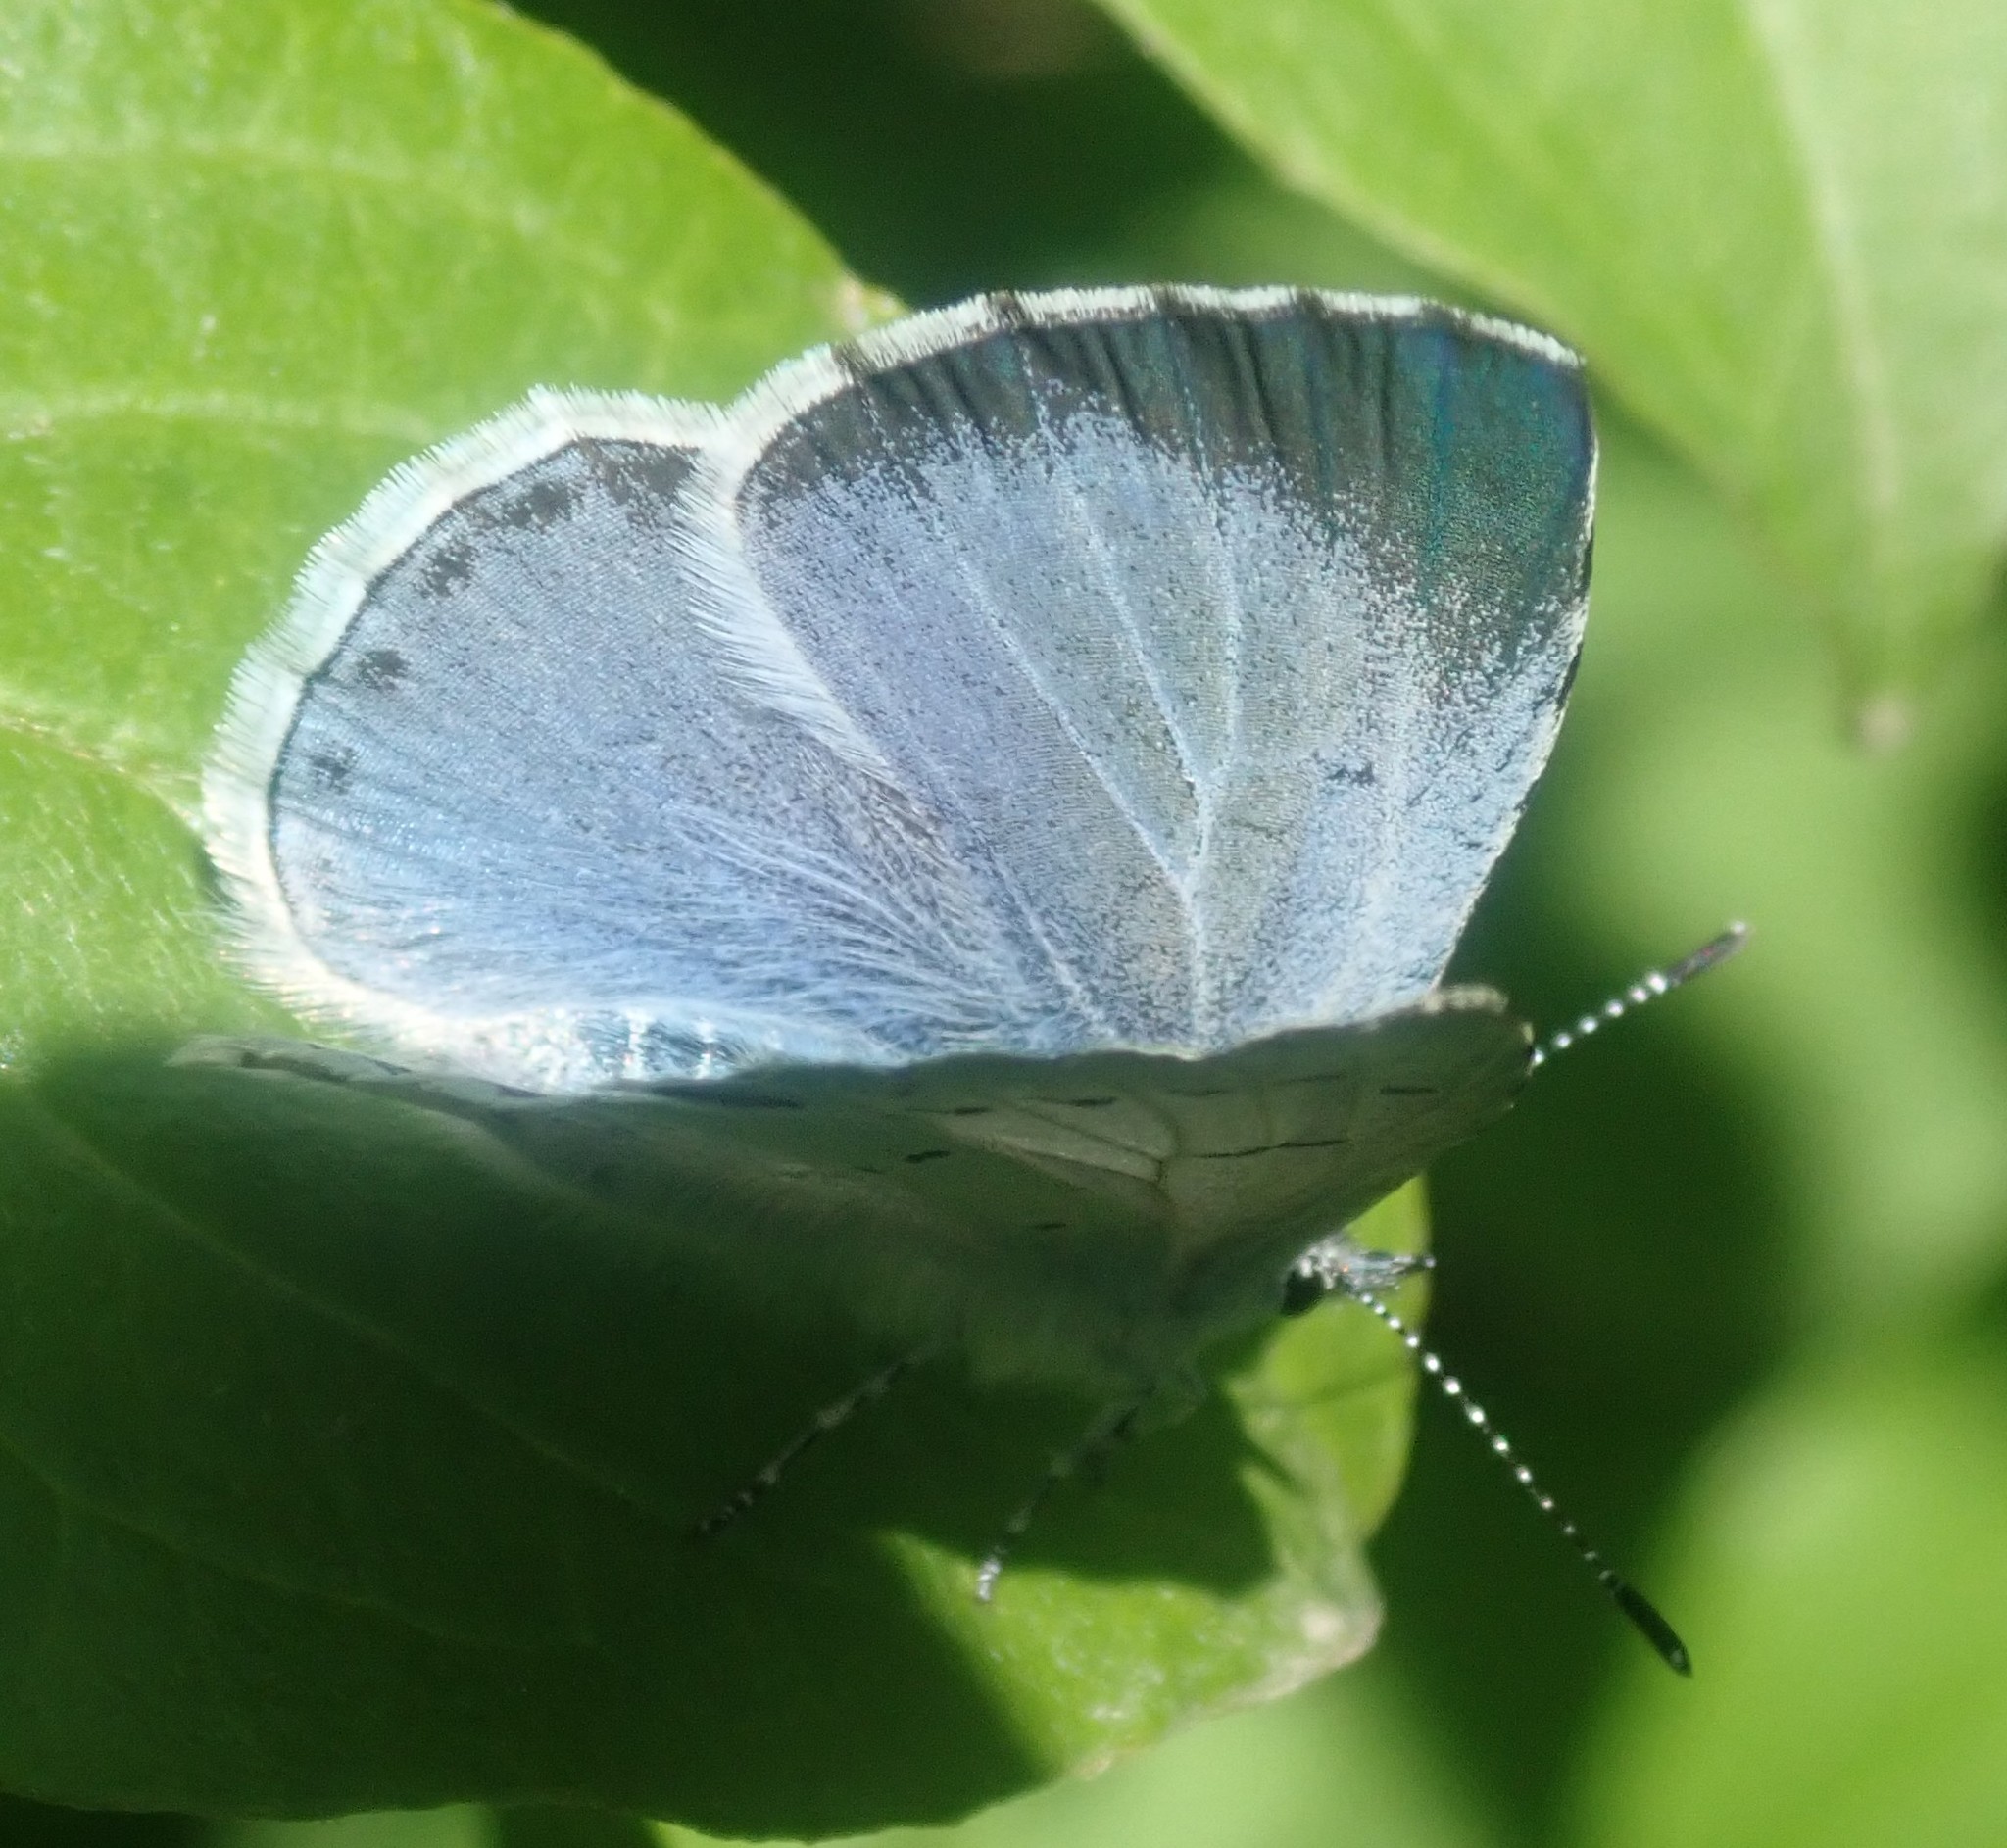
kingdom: Animalia
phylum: Arthropoda
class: Insecta
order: Lepidoptera
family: Lycaenidae
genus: Celastrina
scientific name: Celastrina argiolus
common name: Holly blue
